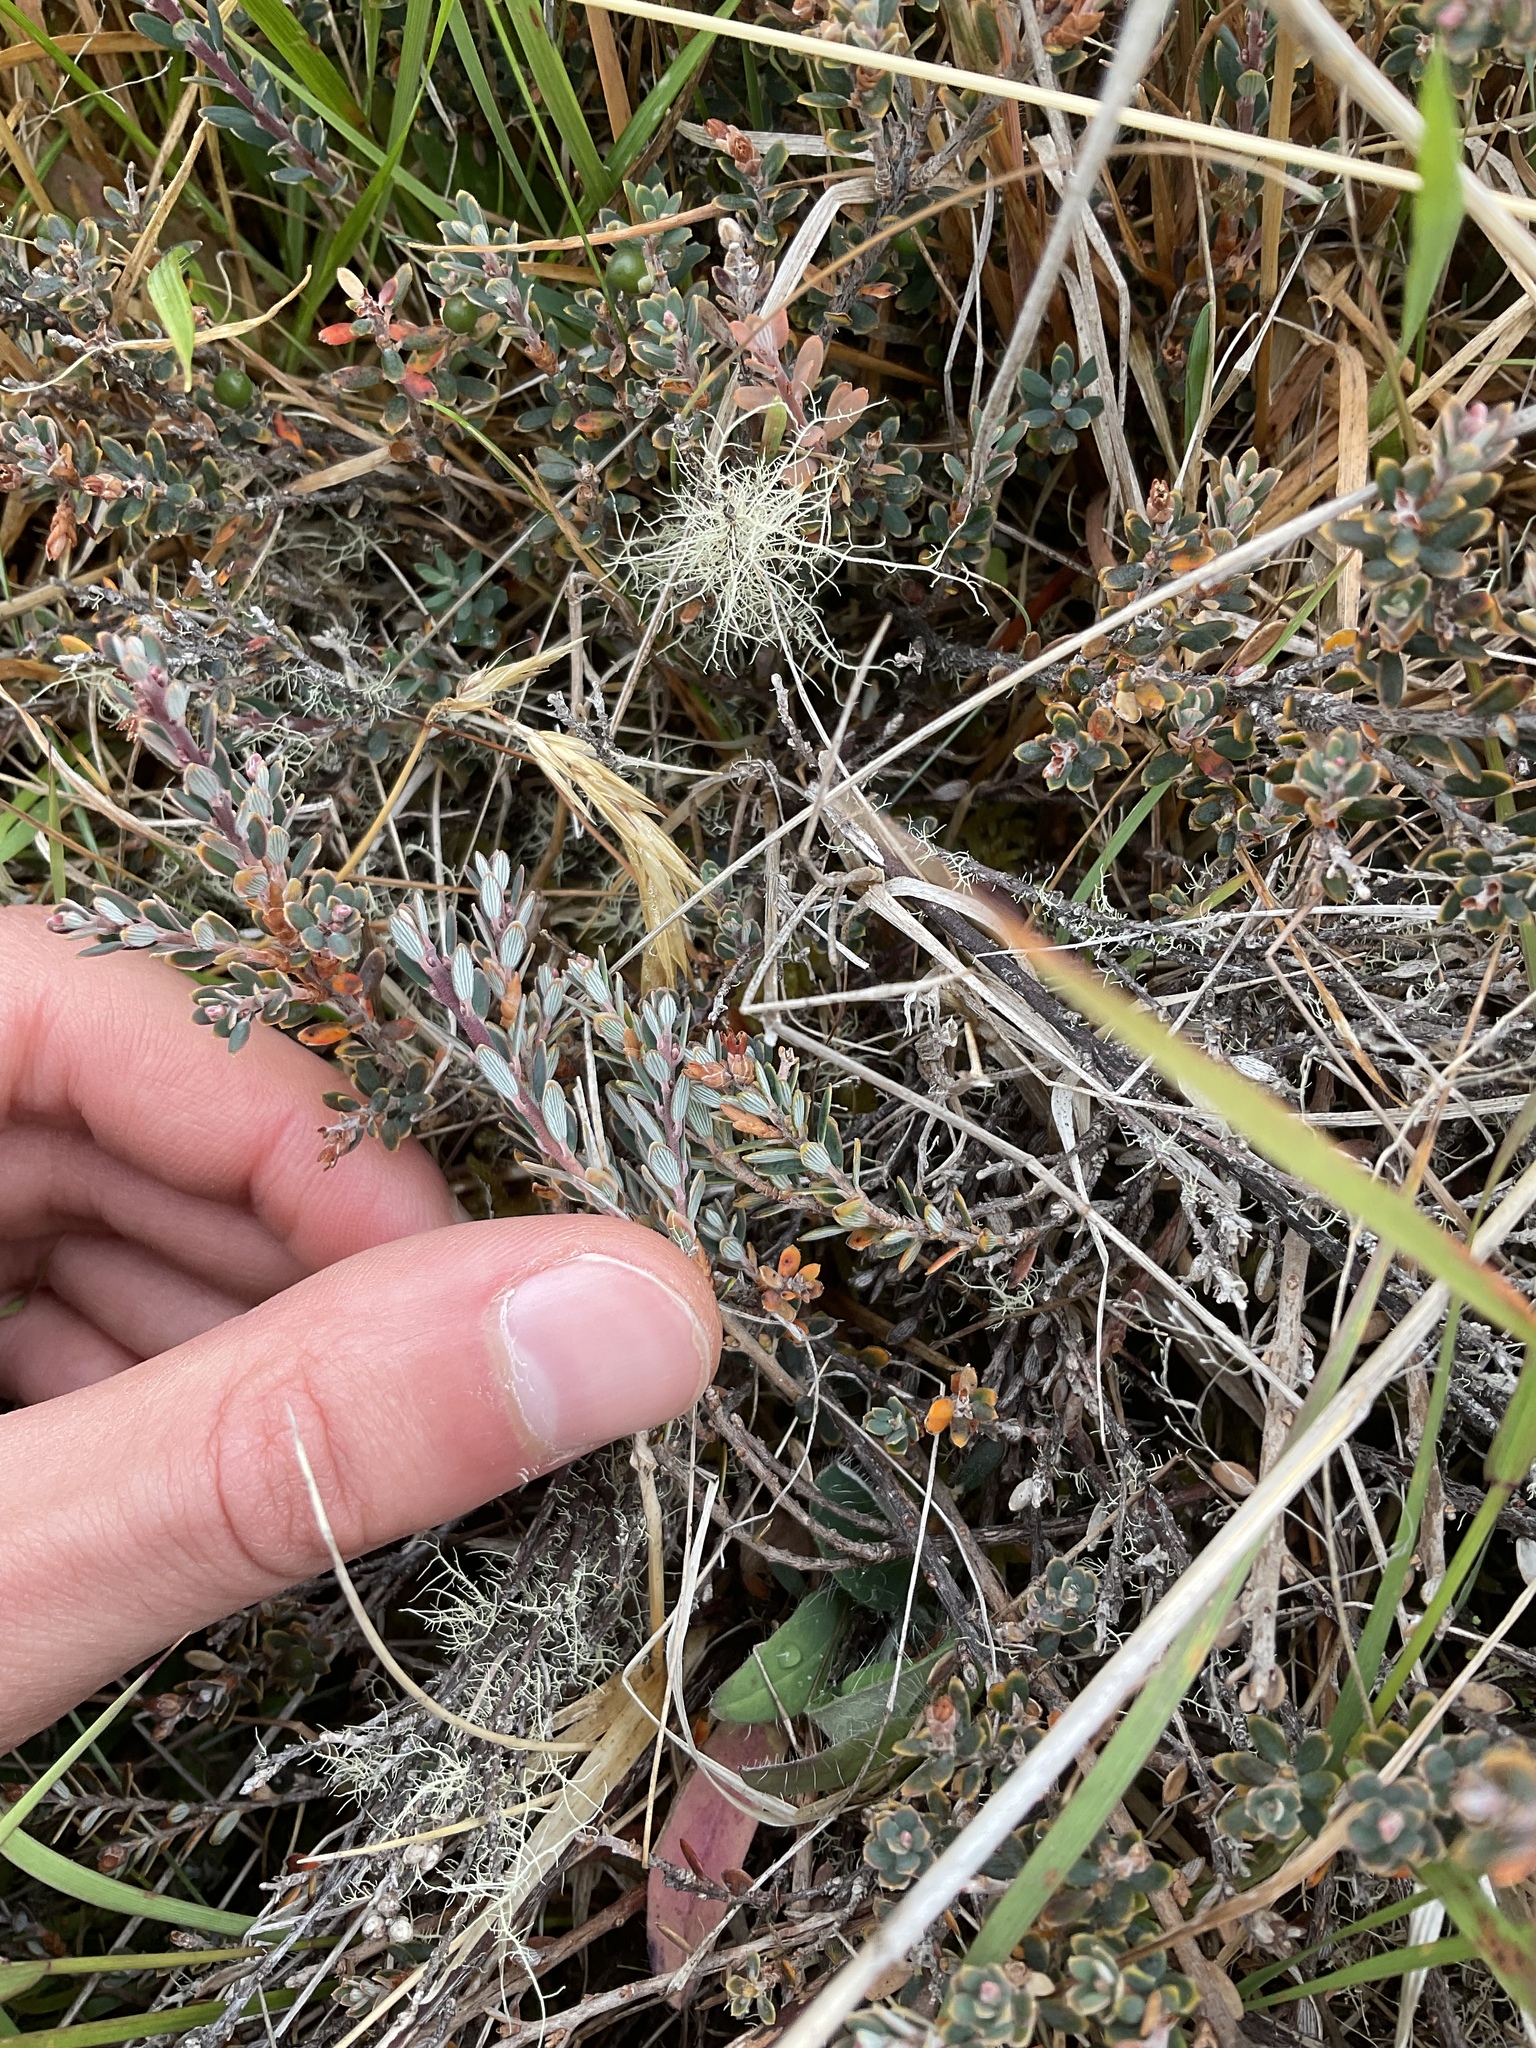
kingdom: Plantae
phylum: Tracheophyta
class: Magnoliopsida
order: Ericales
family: Ericaceae
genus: Acrothamnus
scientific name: Acrothamnus colensoi
